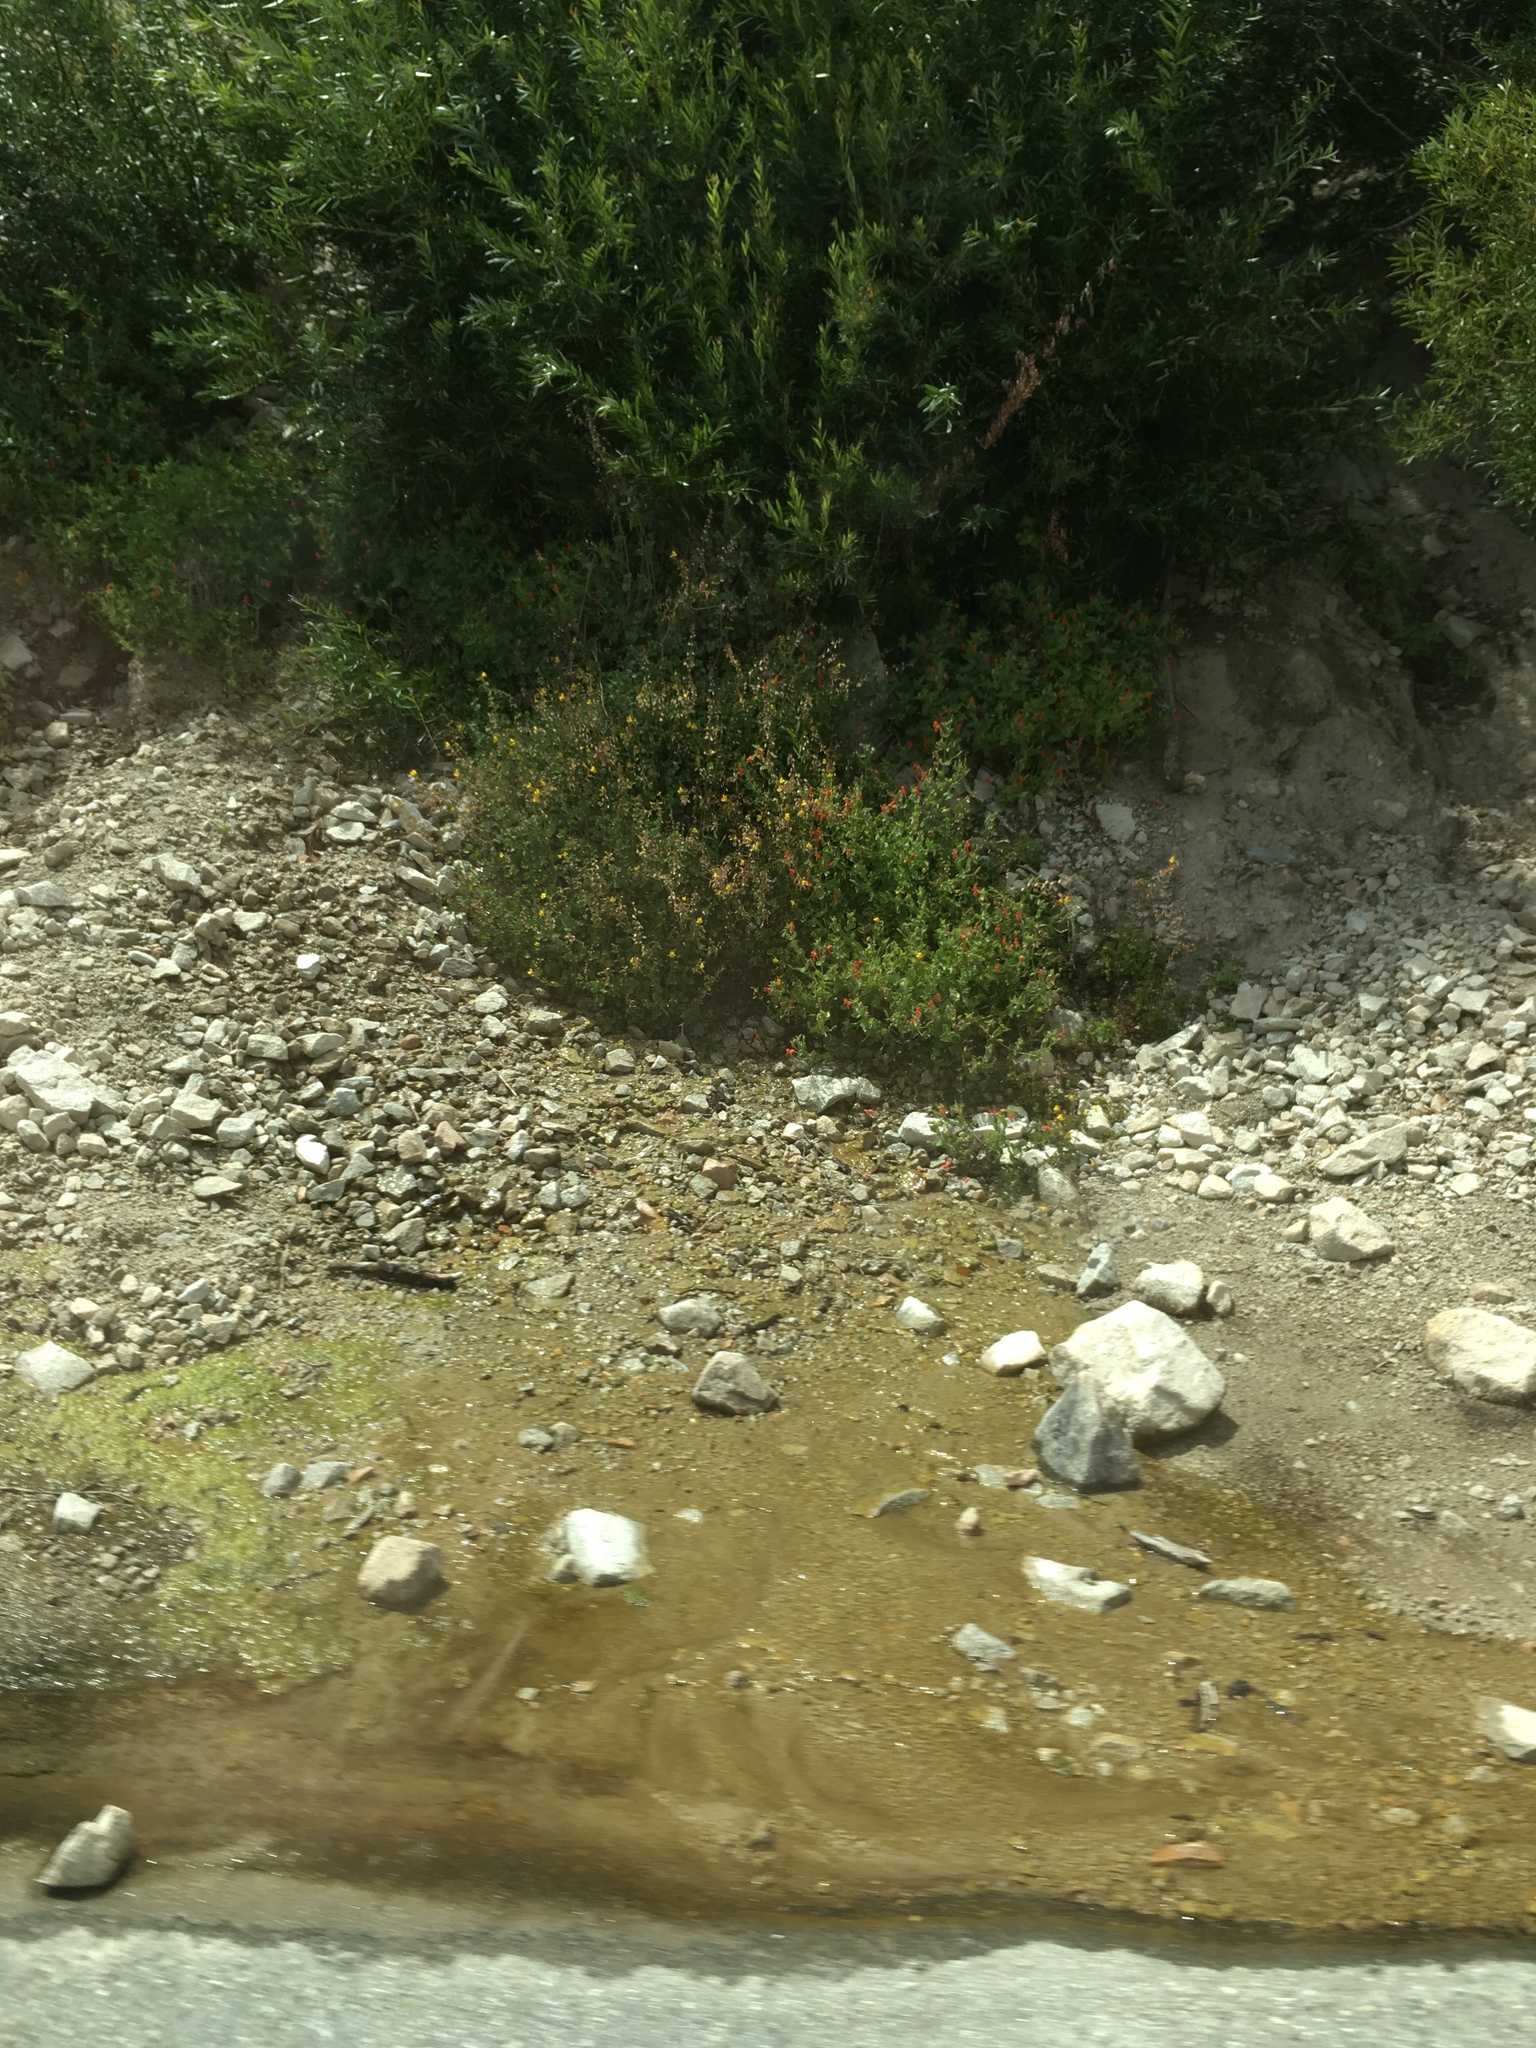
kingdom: Plantae
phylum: Tracheophyta
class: Magnoliopsida
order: Lamiales
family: Phrymaceae
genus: Erythranthe
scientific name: Erythranthe cardinalis
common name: Scarlet monkey-flower
